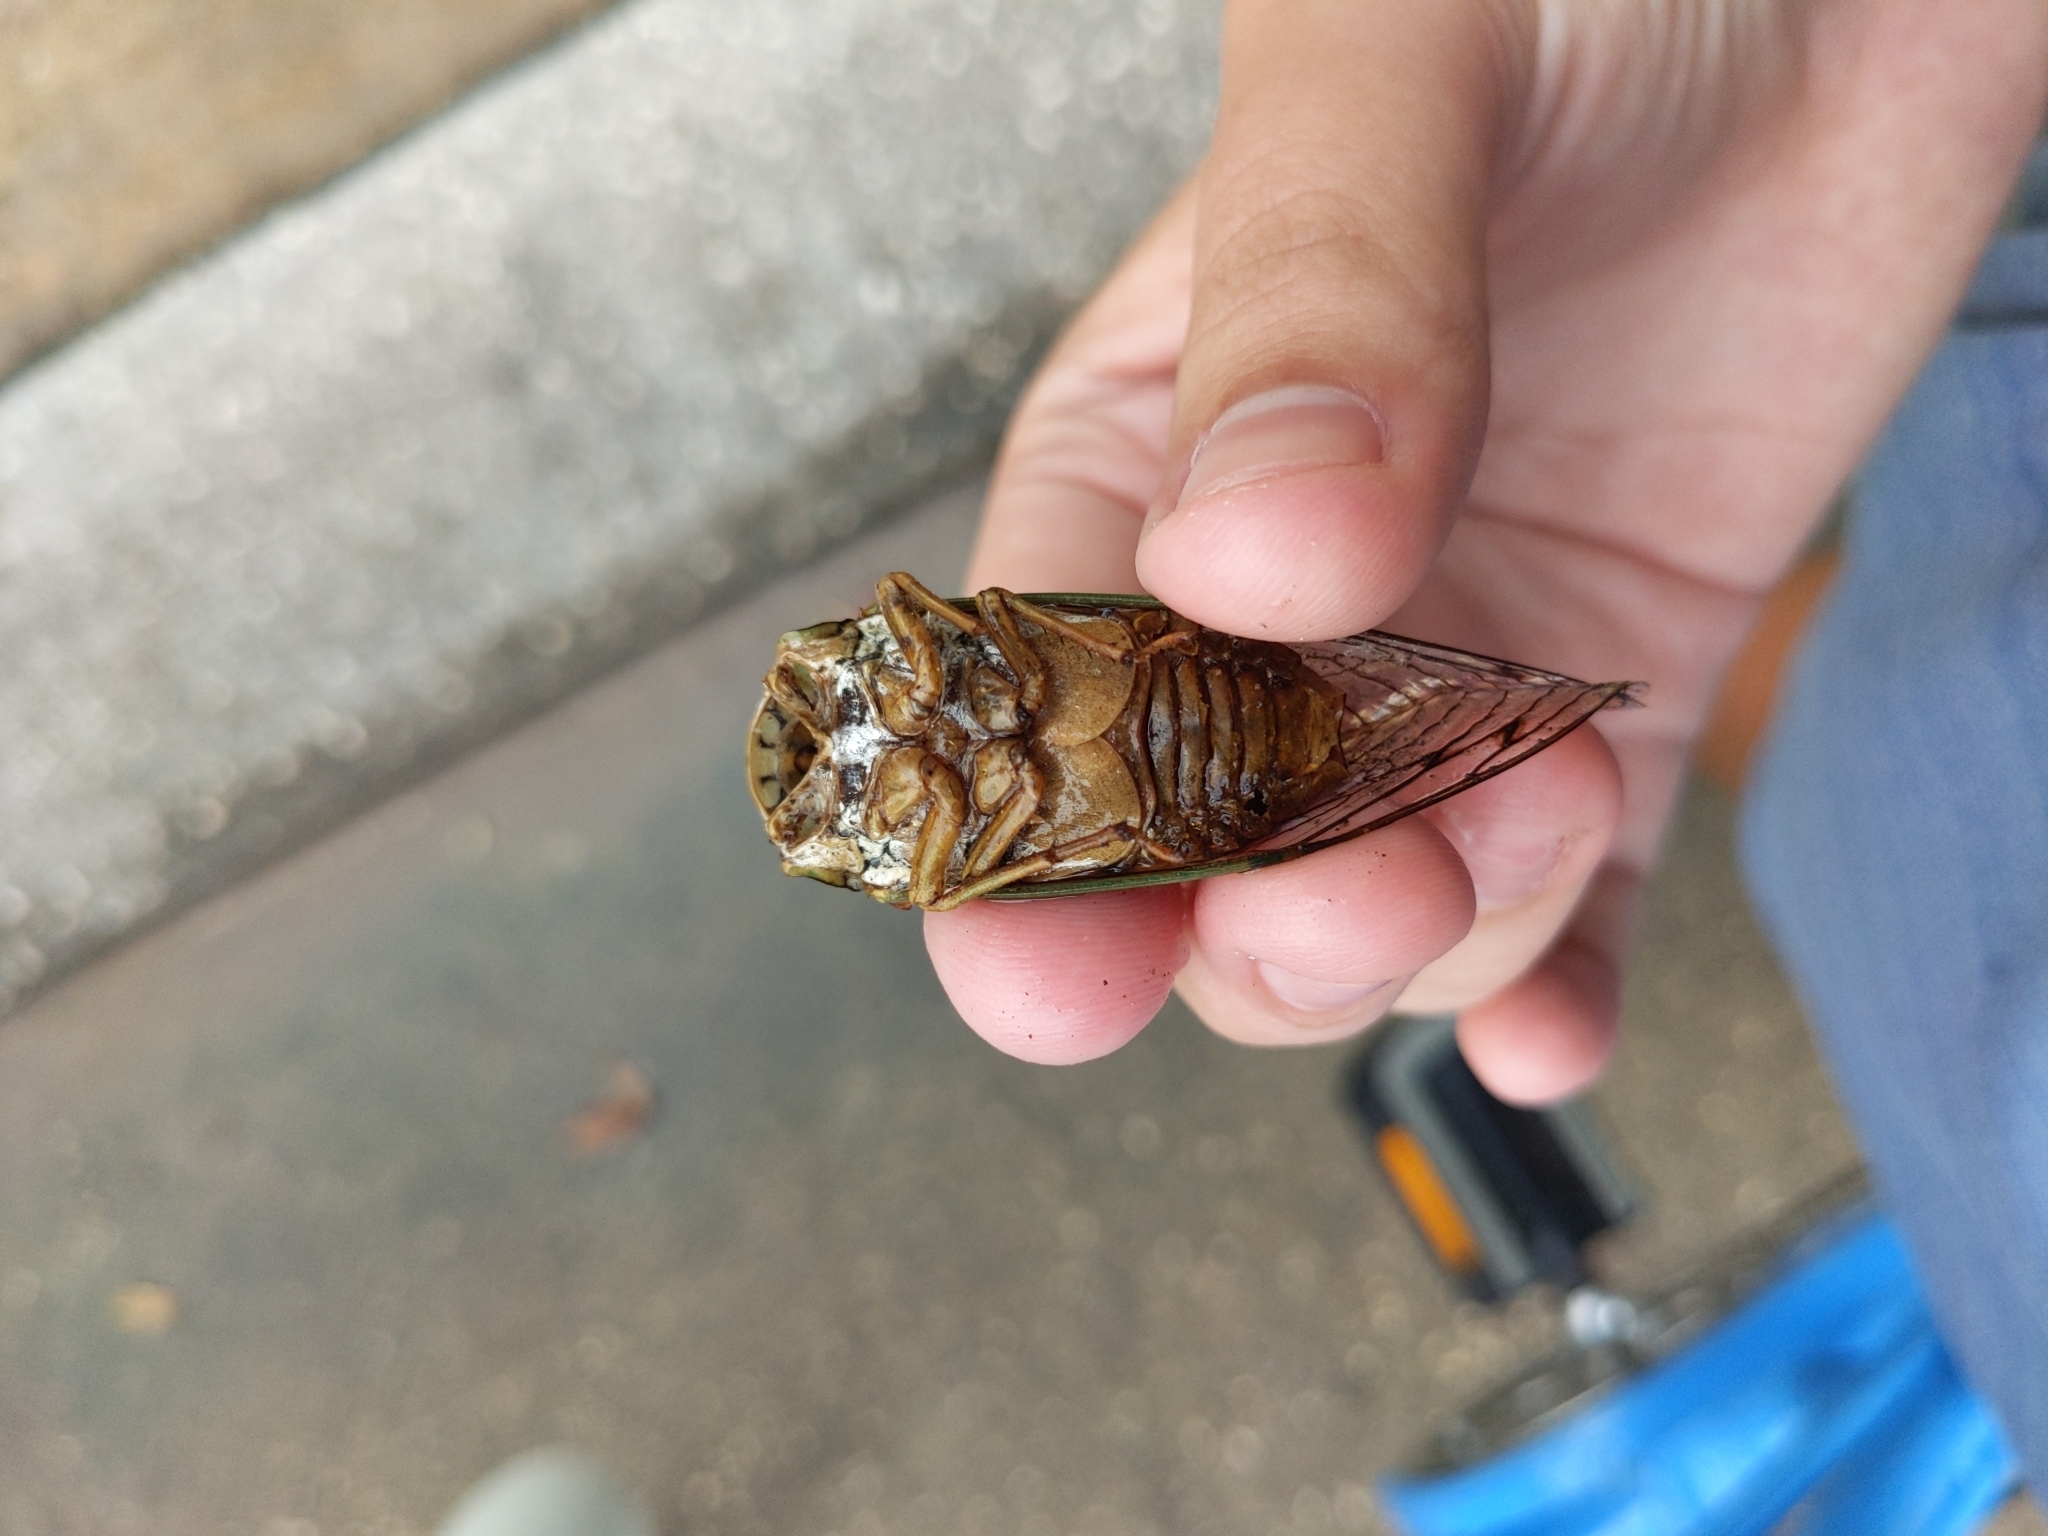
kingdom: Animalia
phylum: Arthropoda
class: Insecta
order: Hemiptera
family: Cicadidae
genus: Megatibicen
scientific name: Megatibicen resh
